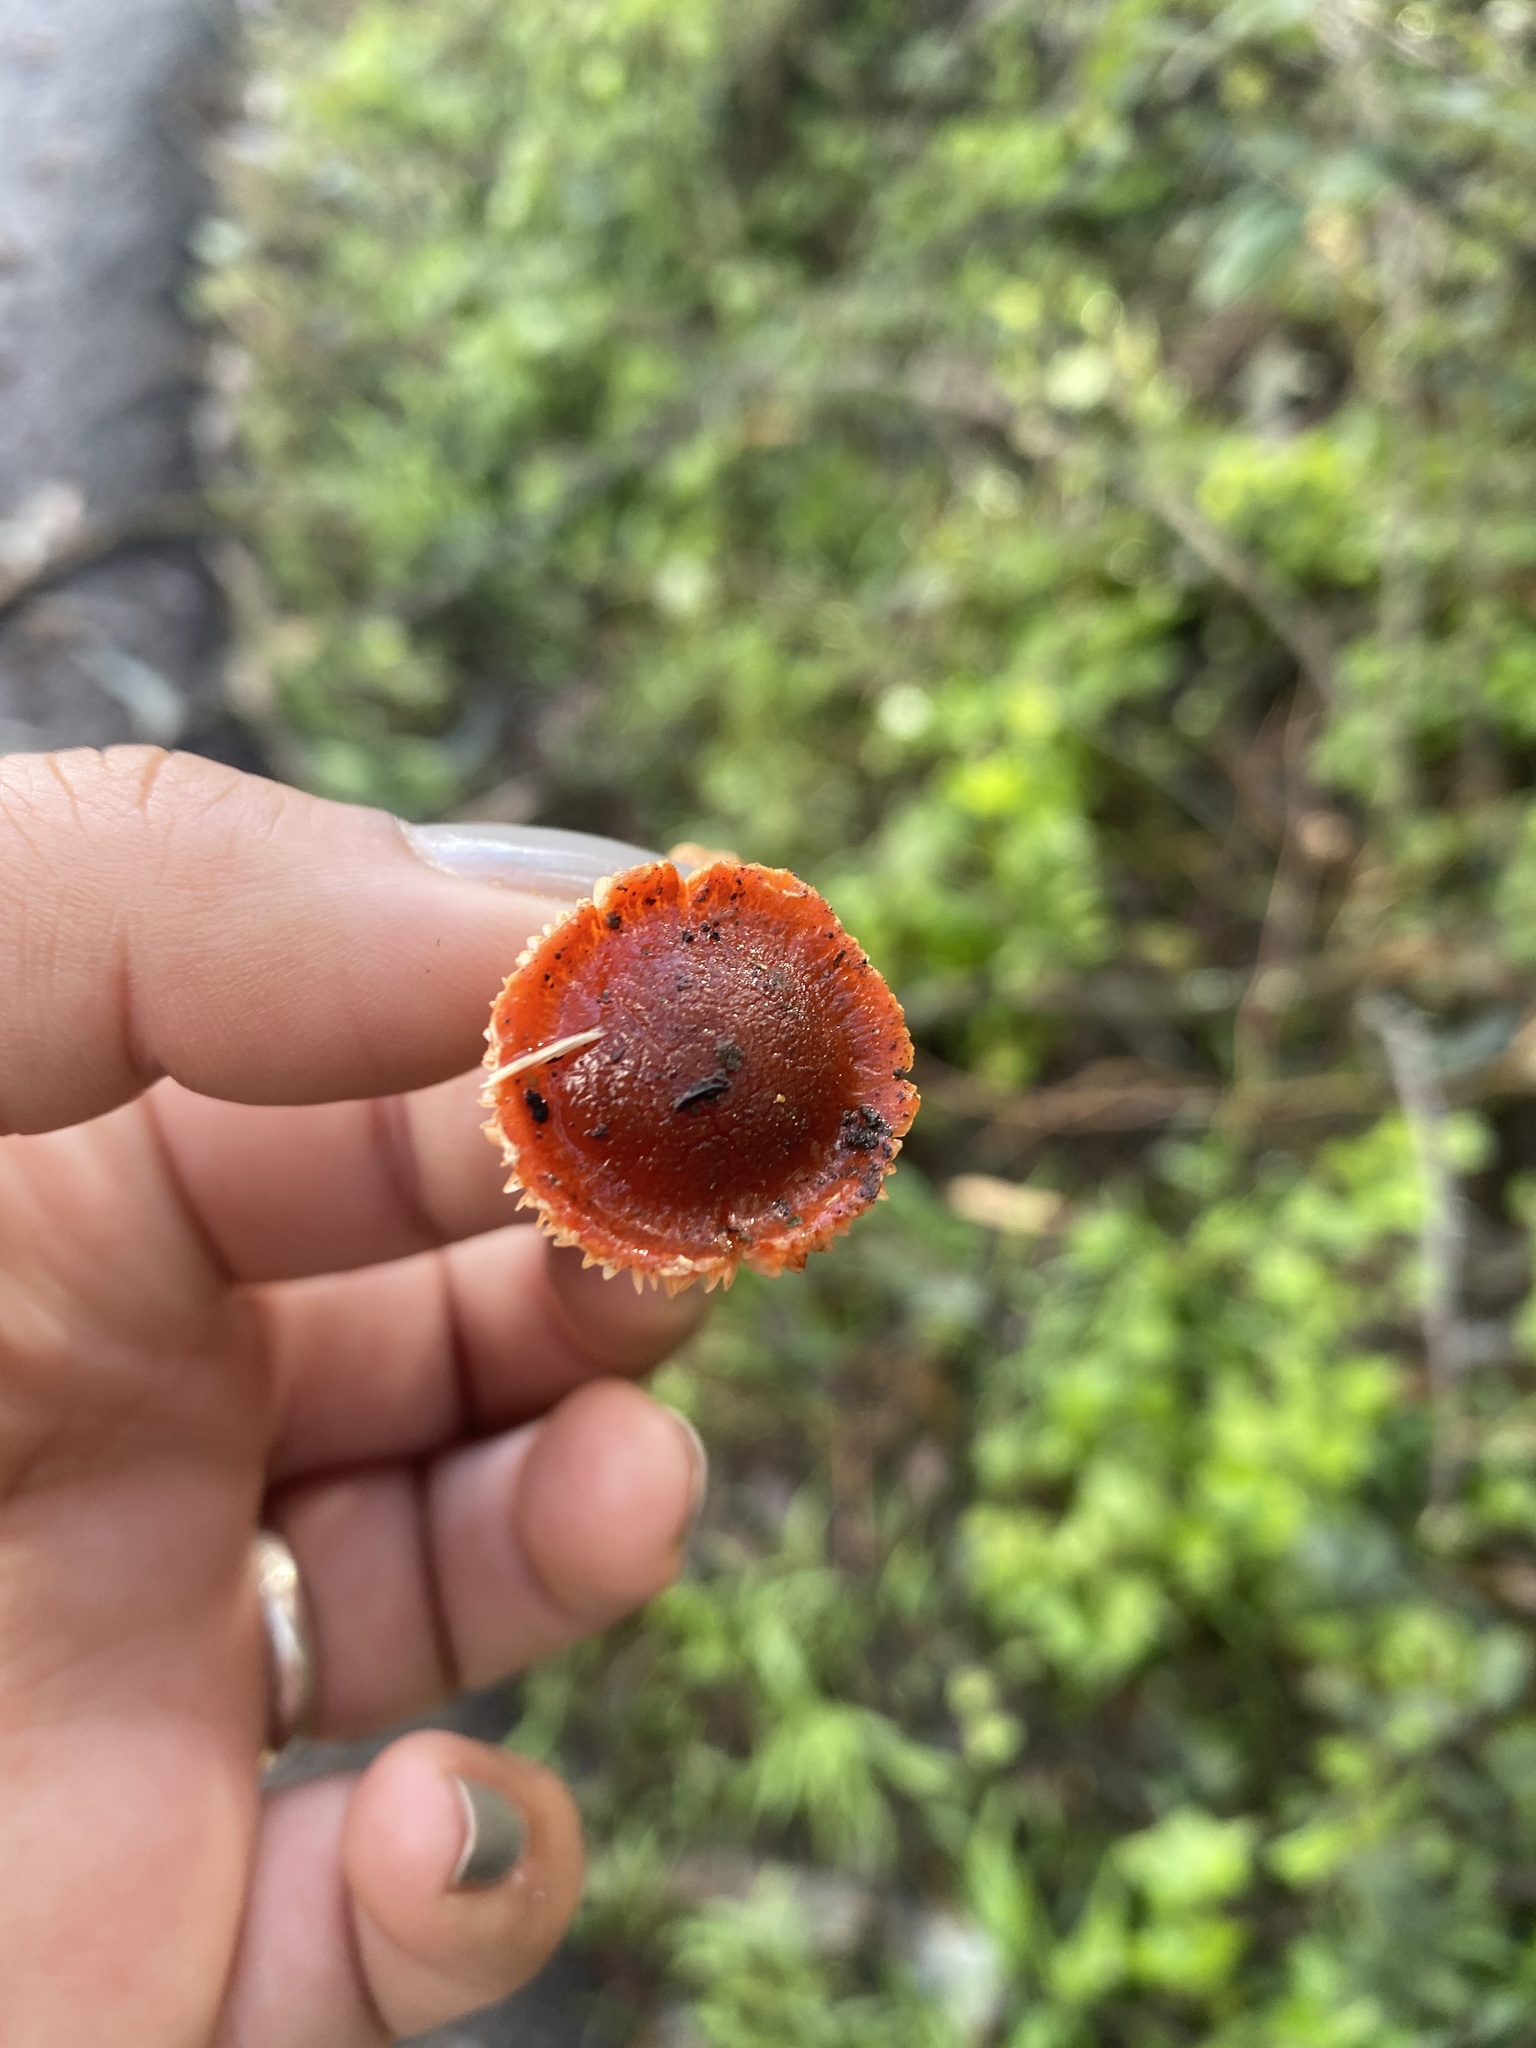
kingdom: Fungi
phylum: Basidiomycota
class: Agaricomycetes
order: Agaricales
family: Strophariaceae
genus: Leratiomyces
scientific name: Leratiomyces ceres
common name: Redlead roundhead
